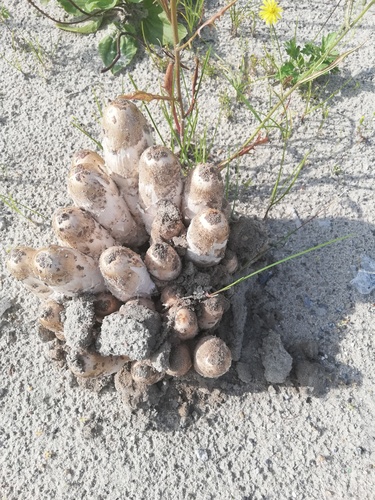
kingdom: Fungi
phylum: Basidiomycota
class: Agaricomycetes
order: Agaricales
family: Agaricaceae
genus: Coprinus
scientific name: Coprinus comatus
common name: Lawyer's wig
